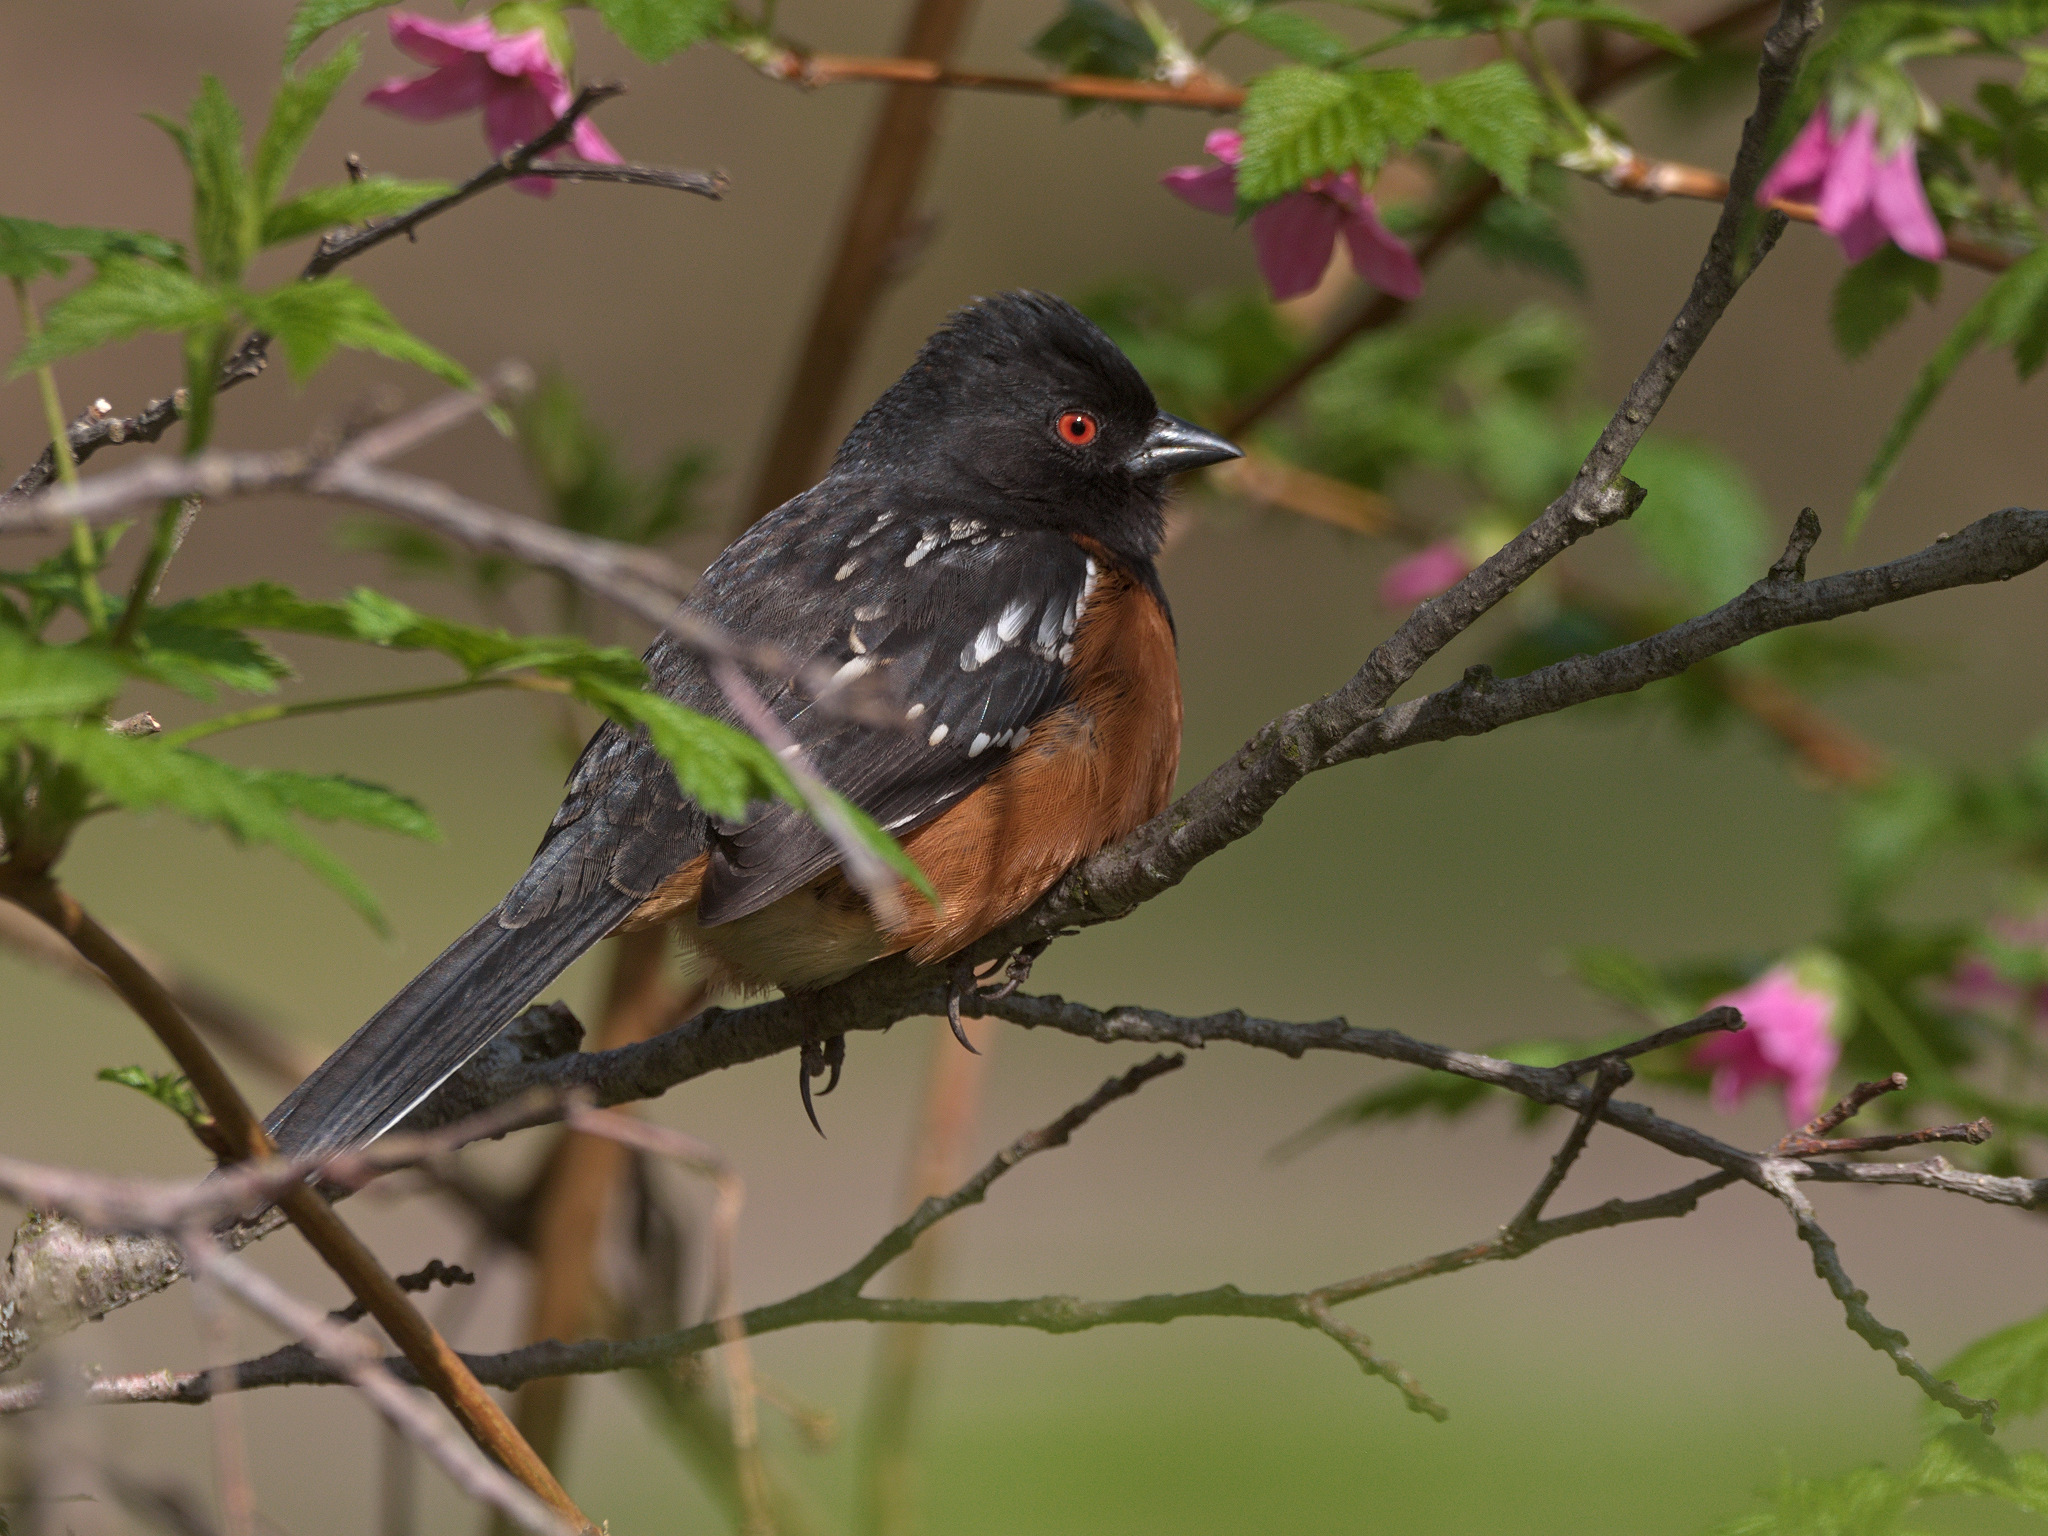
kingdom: Animalia
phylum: Chordata
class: Aves
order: Passeriformes
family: Passerellidae
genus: Pipilo
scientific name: Pipilo maculatus
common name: Spotted towhee
